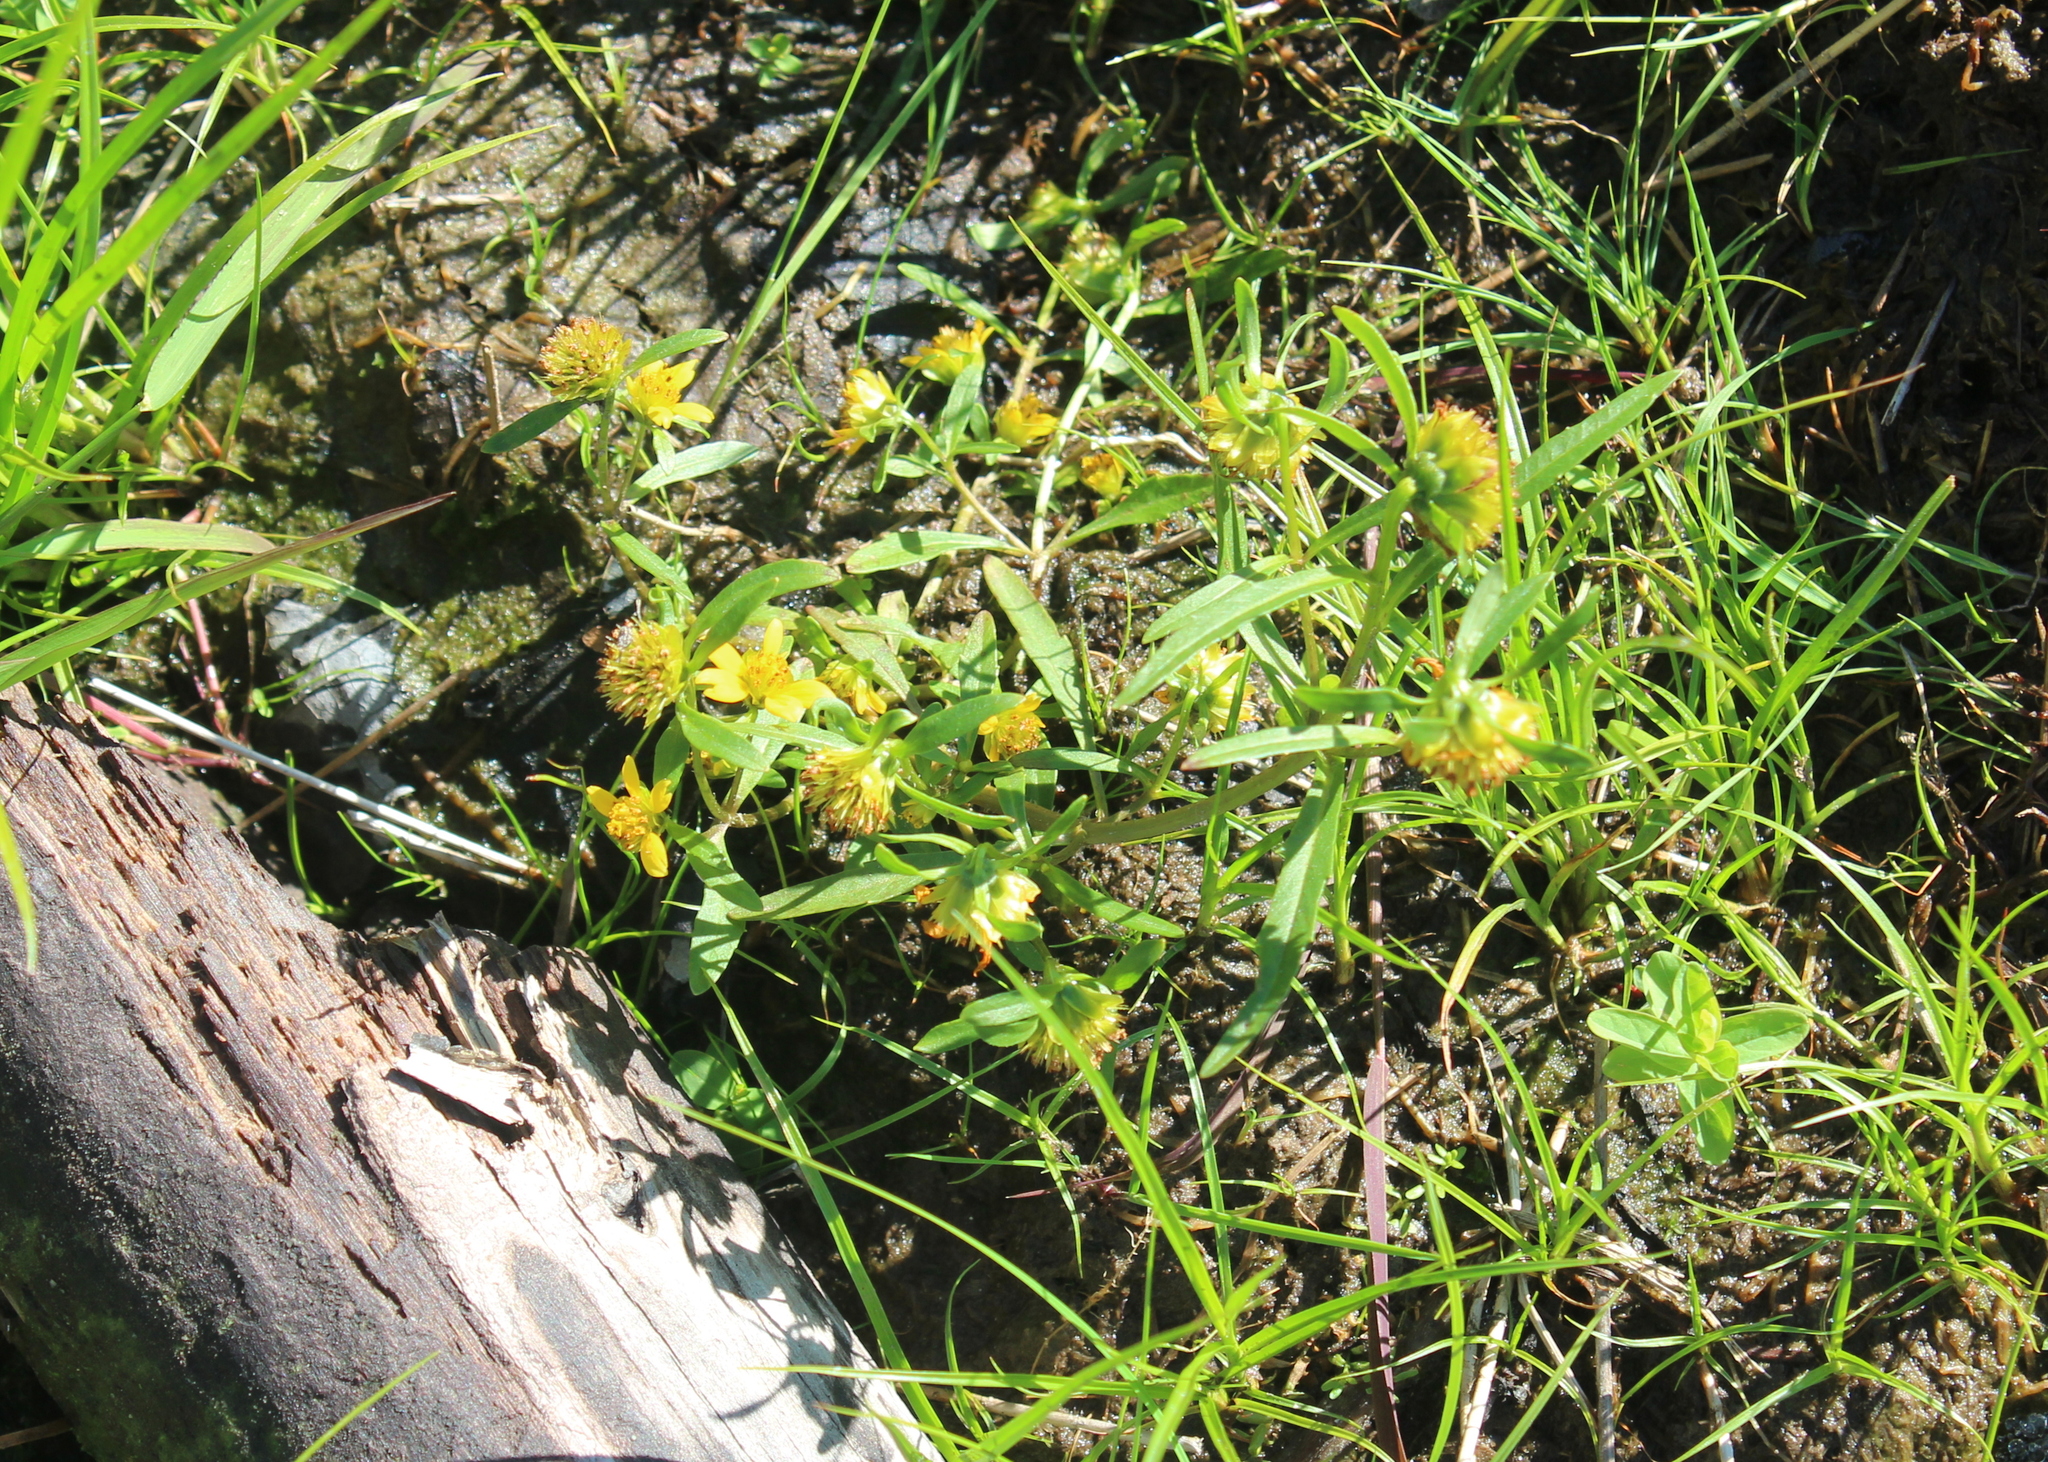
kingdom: Plantae
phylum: Tracheophyta
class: Magnoliopsida
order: Asterales
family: Asteraceae
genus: Bidens
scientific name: Bidens cernua
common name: Nodding bur-marigold
